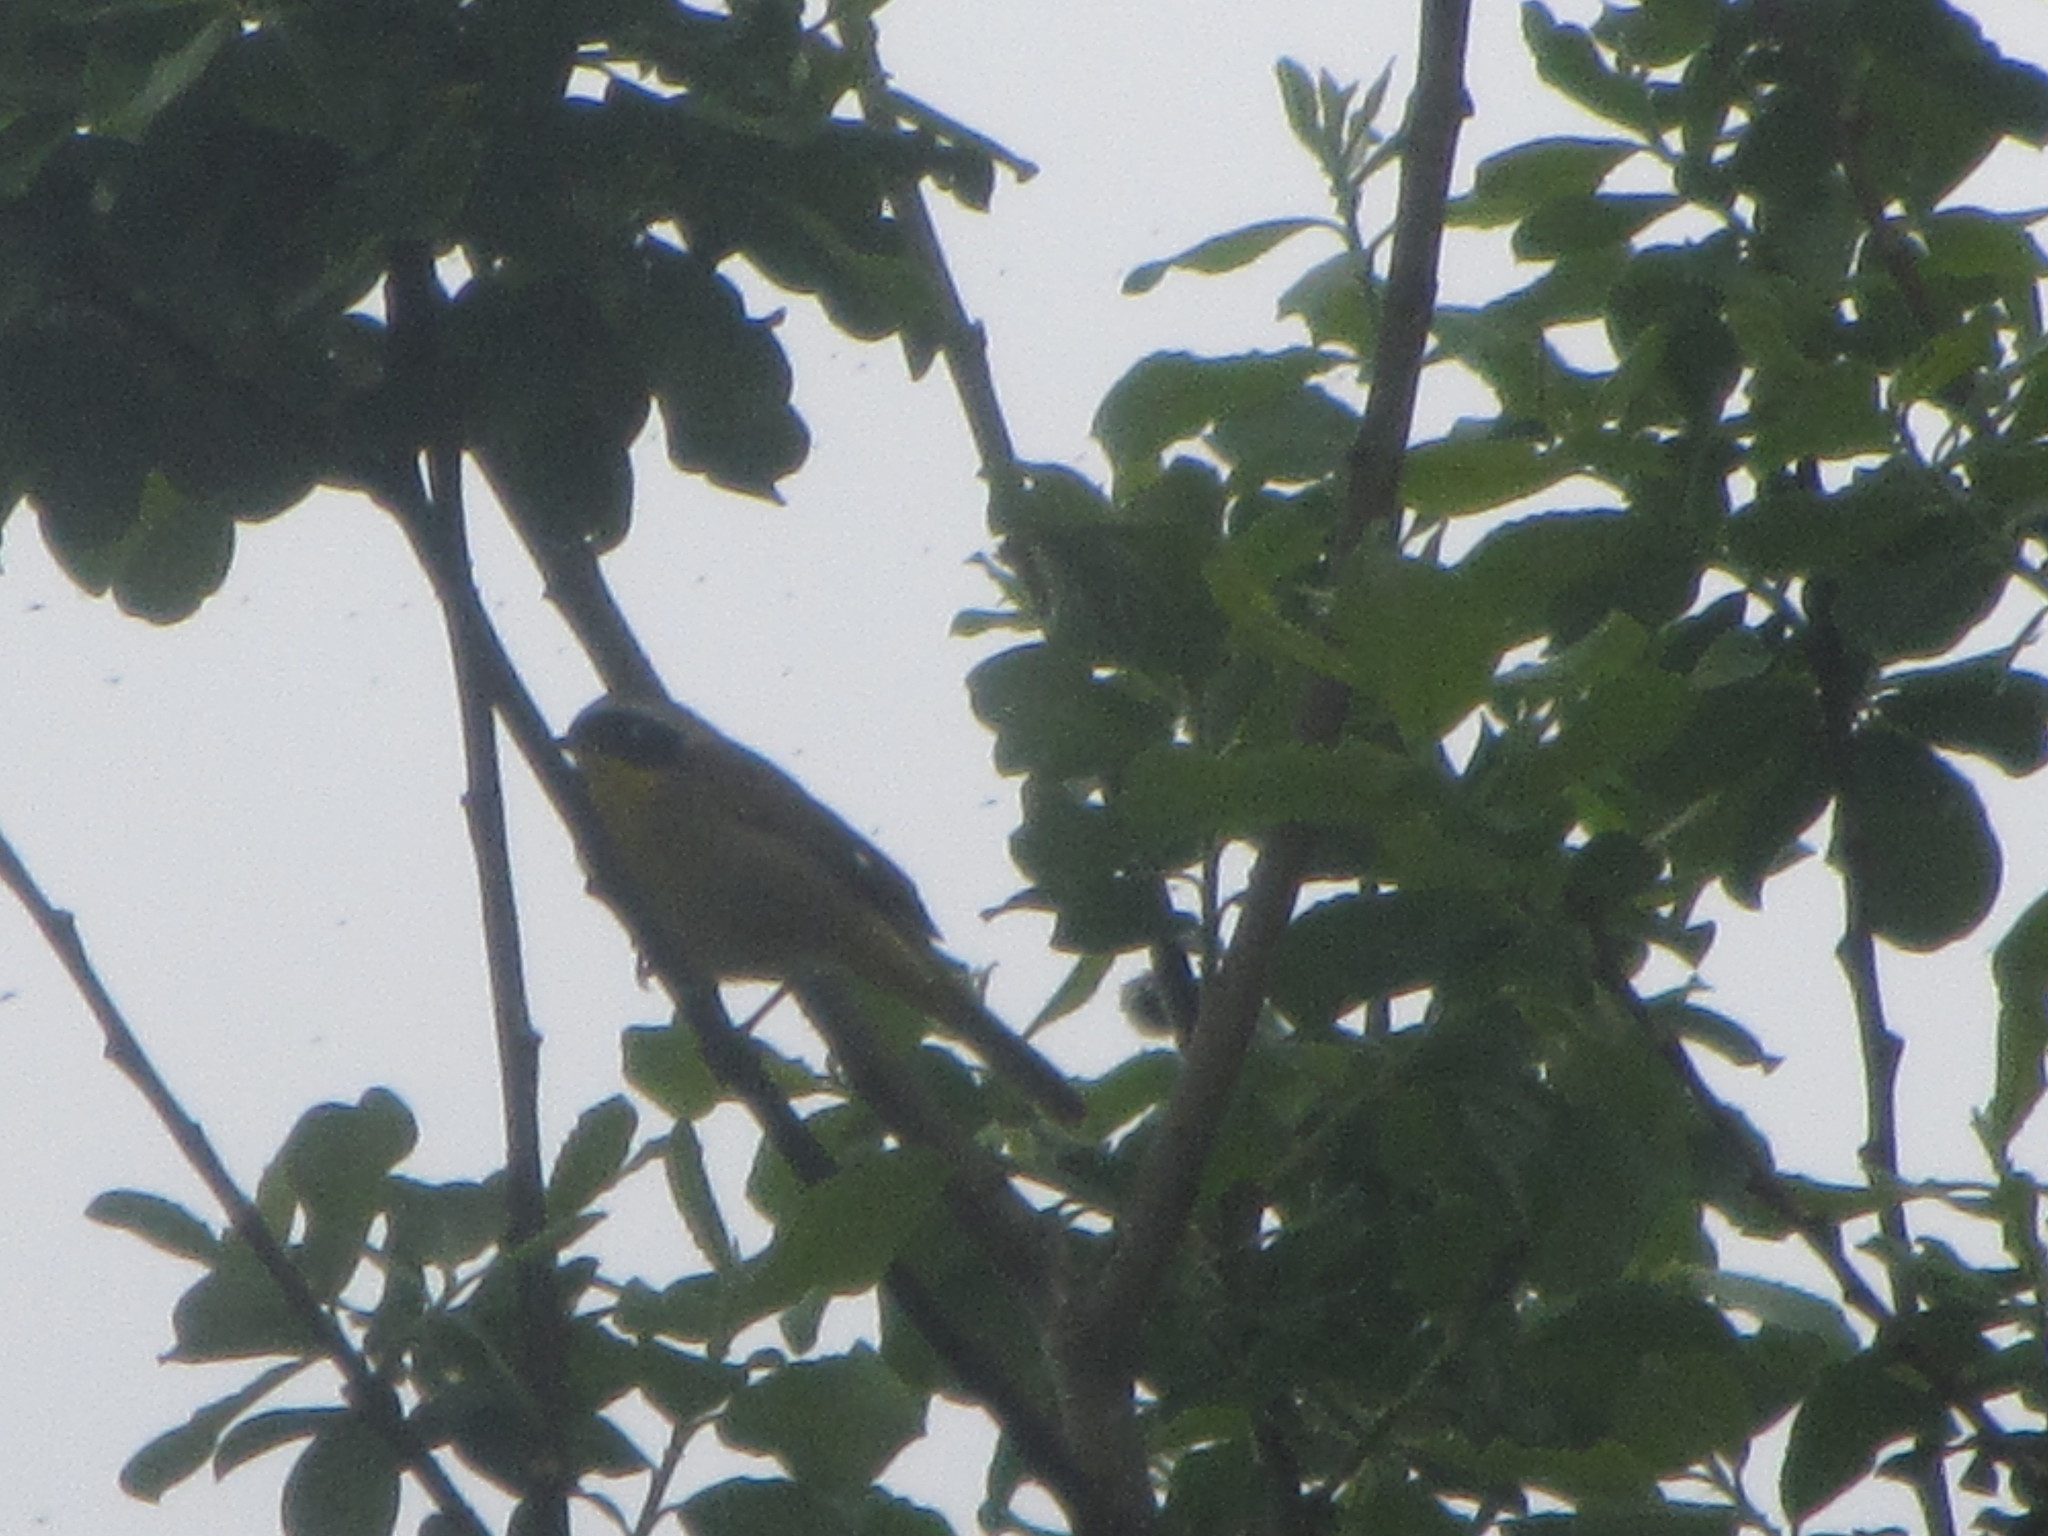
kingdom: Animalia
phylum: Chordata
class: Aves
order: Passeriformes
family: Parulidae
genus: Geothlypis
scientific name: Geothlypis trichas
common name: Common yellowthroat
